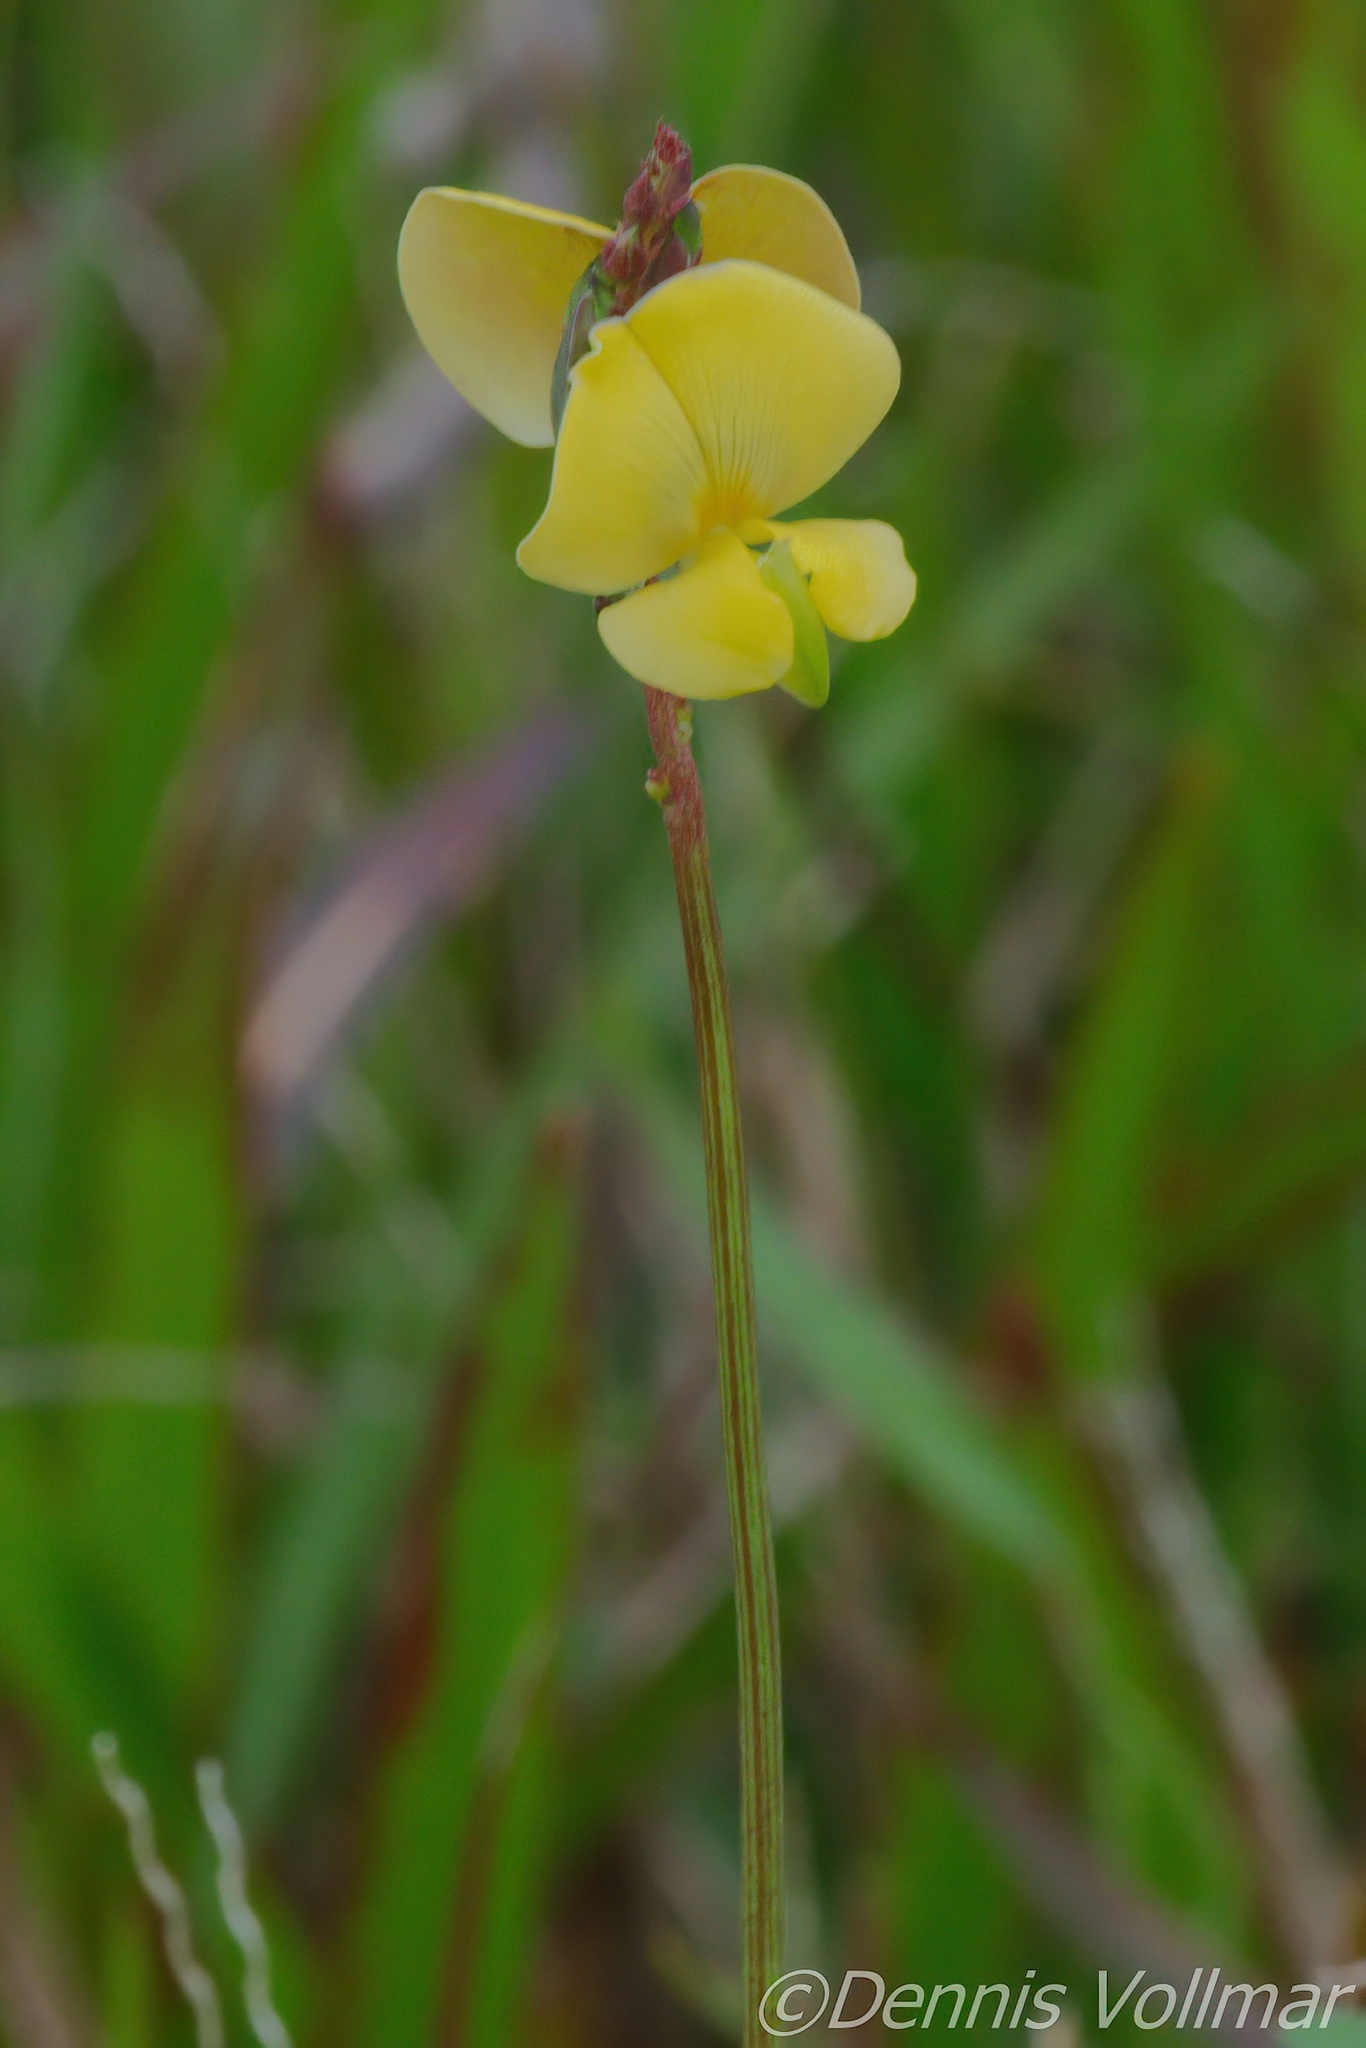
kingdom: Plantae
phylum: Tracheophyta
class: Magnoliopsida
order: Fabales
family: Fabaceae
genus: Vigna
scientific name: Vigna luteola
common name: Hairypod cowpea
